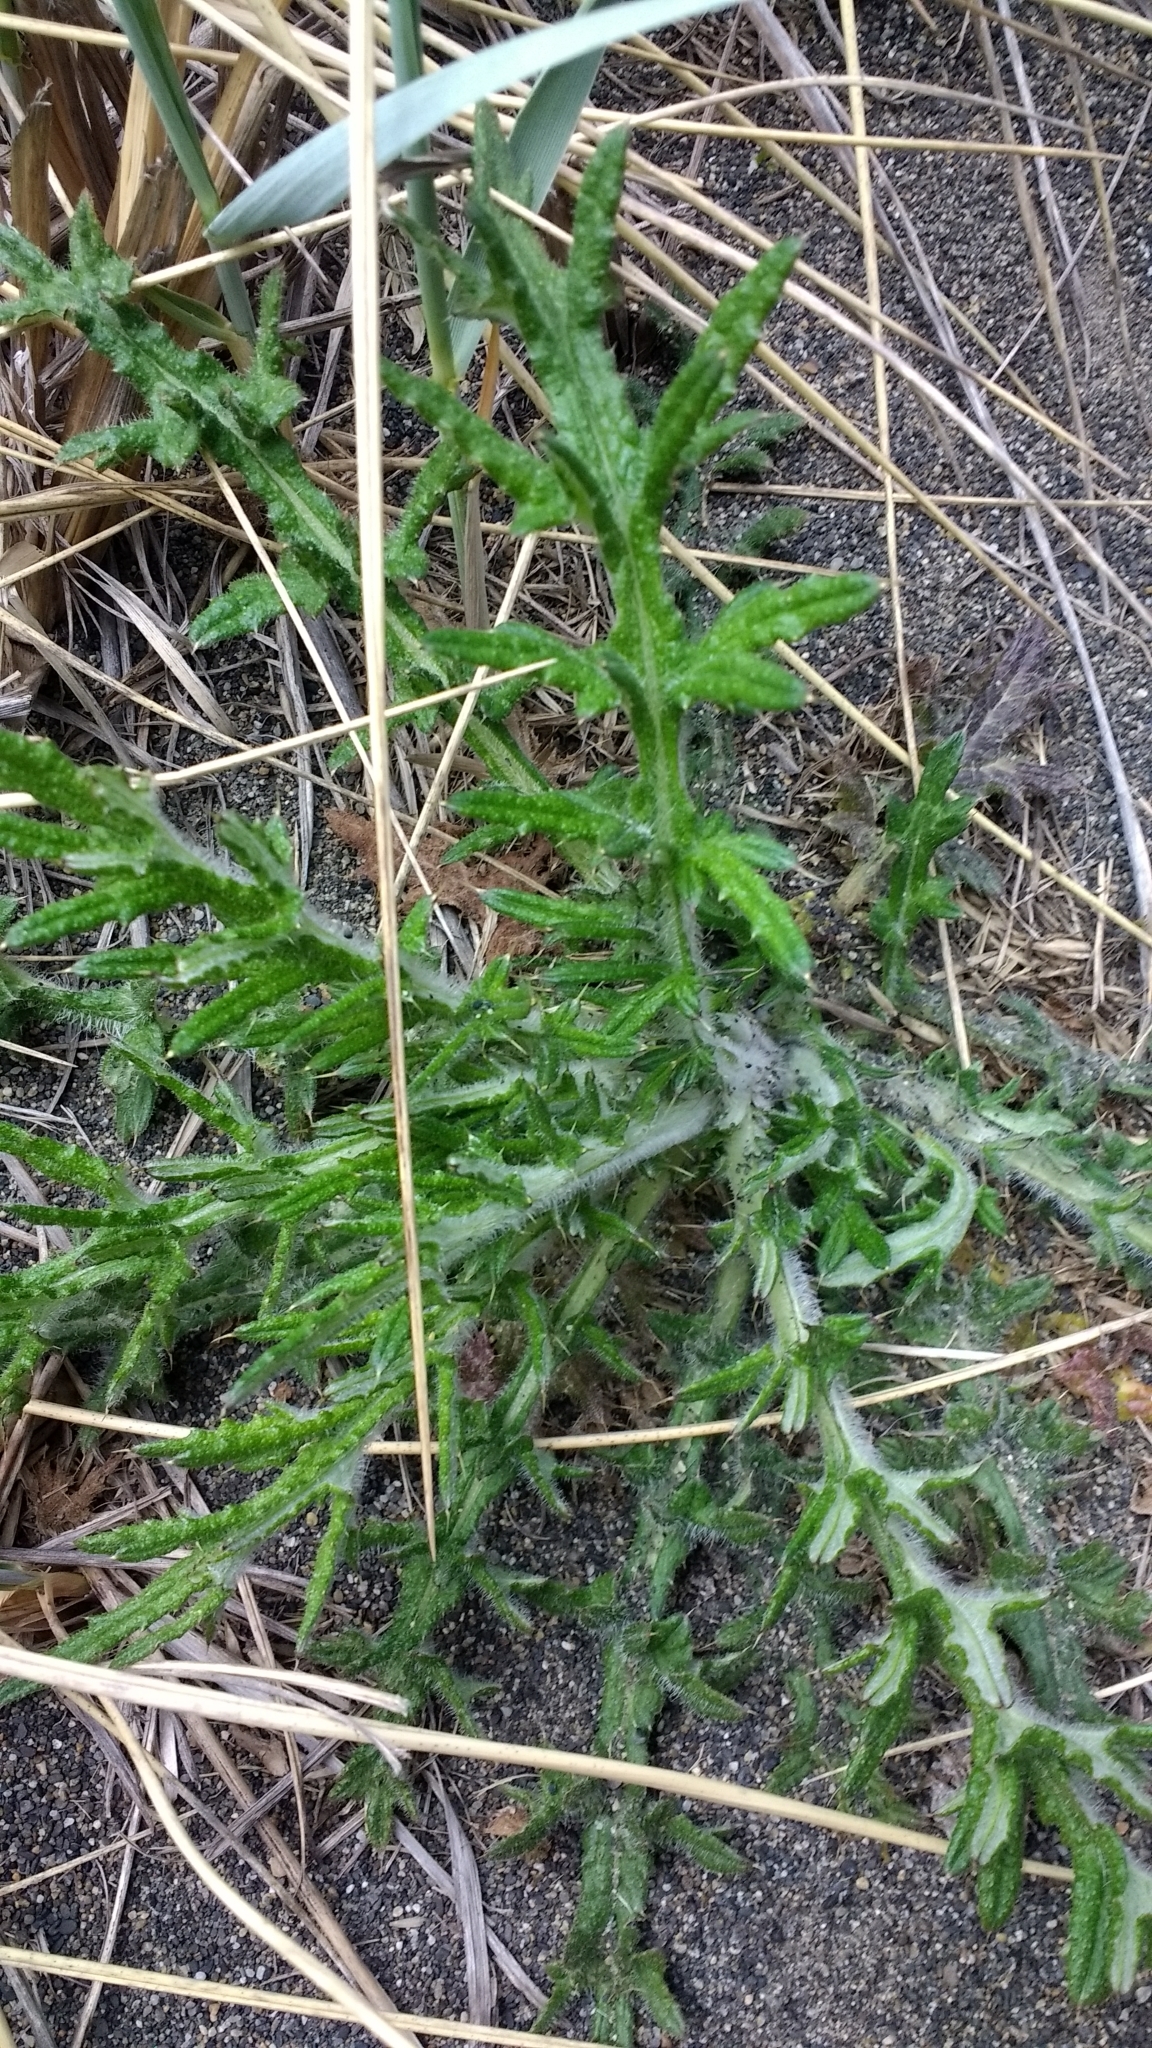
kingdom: Plantae
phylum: Tracheophyta
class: Magnoliopsida
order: Asterales
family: Asteraceae
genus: Cirsium
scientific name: Cirsium vulgare
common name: Bull thistle
